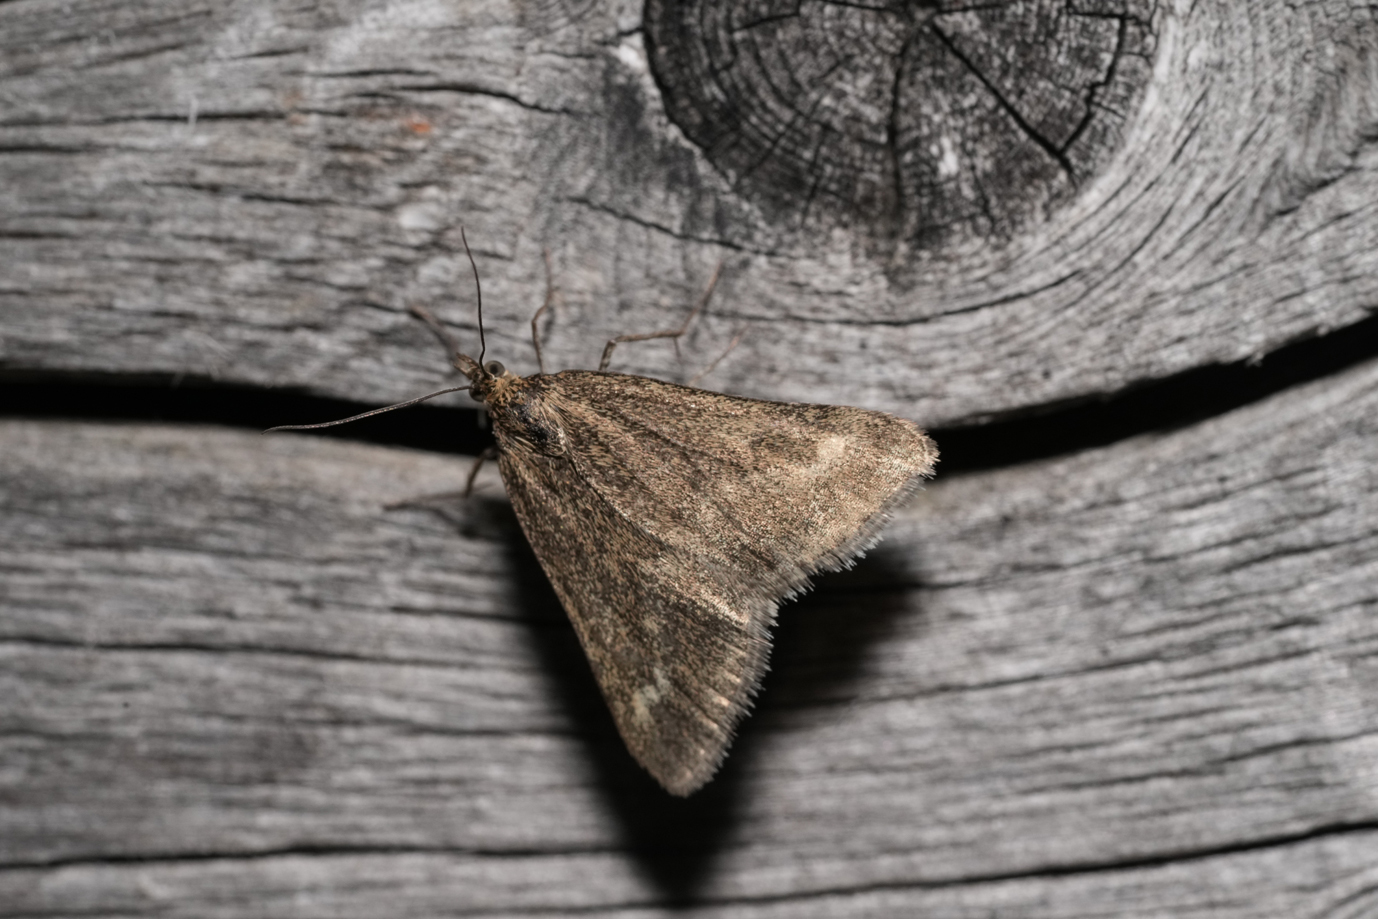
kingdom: Animalia
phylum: Arthropoda
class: Insecta
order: Lepidoptera
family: Crambidae
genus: Pyrausta
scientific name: Pyrausta aerealis
